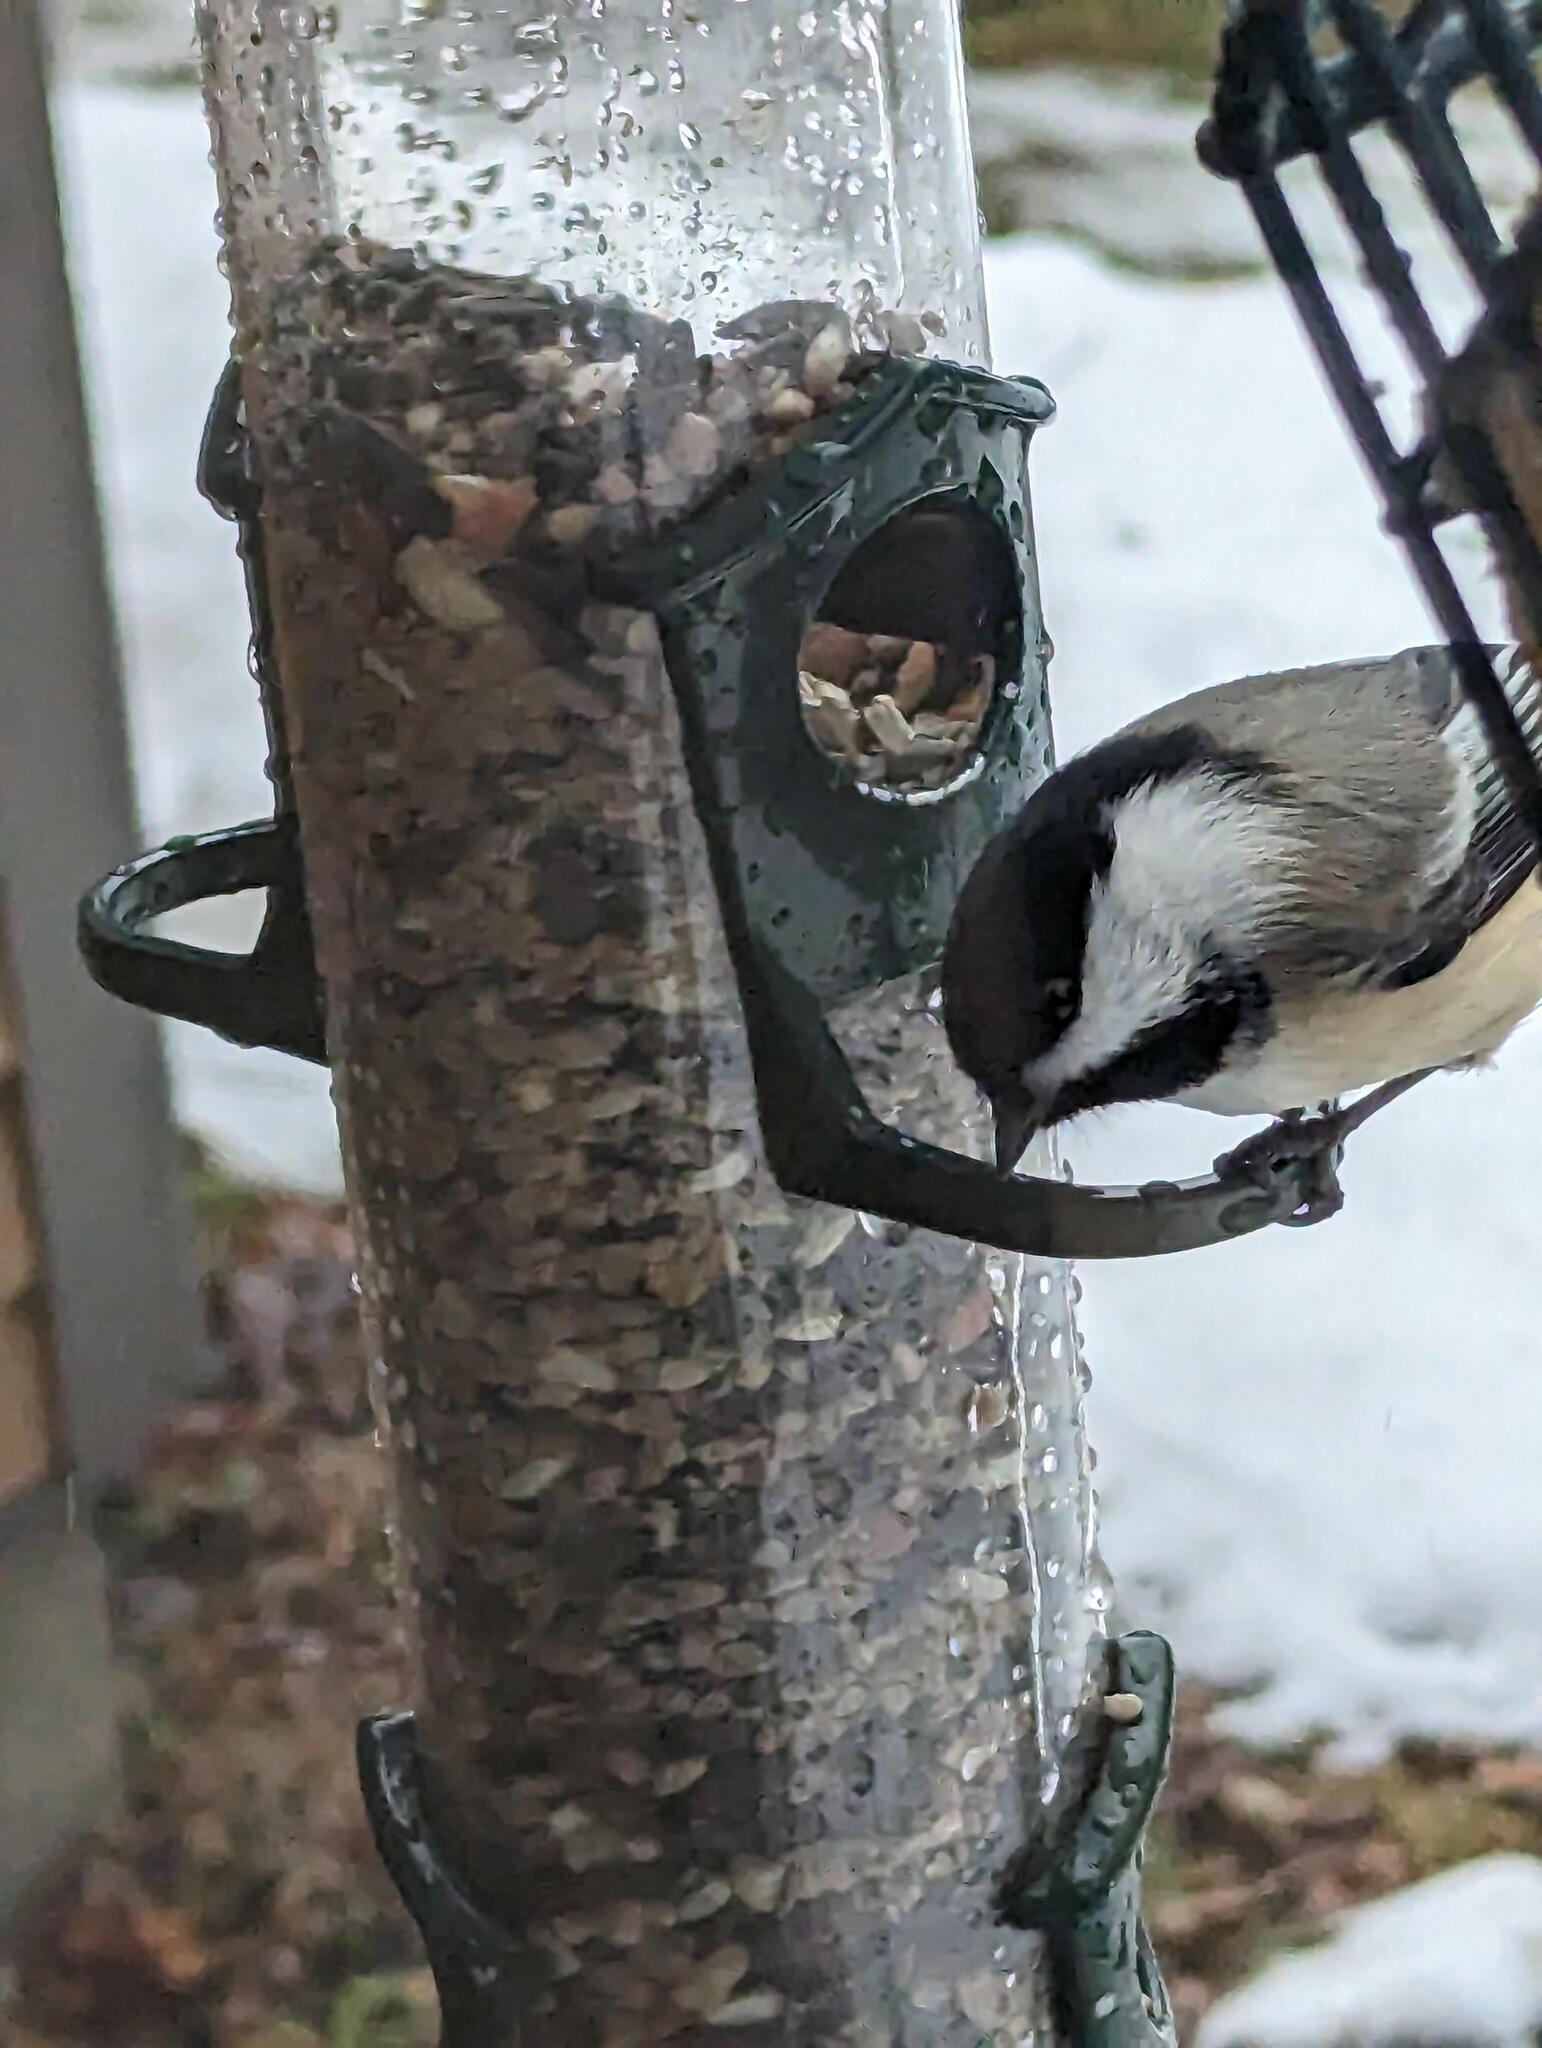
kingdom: Animalia
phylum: Chordata
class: Aves
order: Passeriformes
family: Paridae
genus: Poecile
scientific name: Poecile atricapillus
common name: Black-capped chickadee
